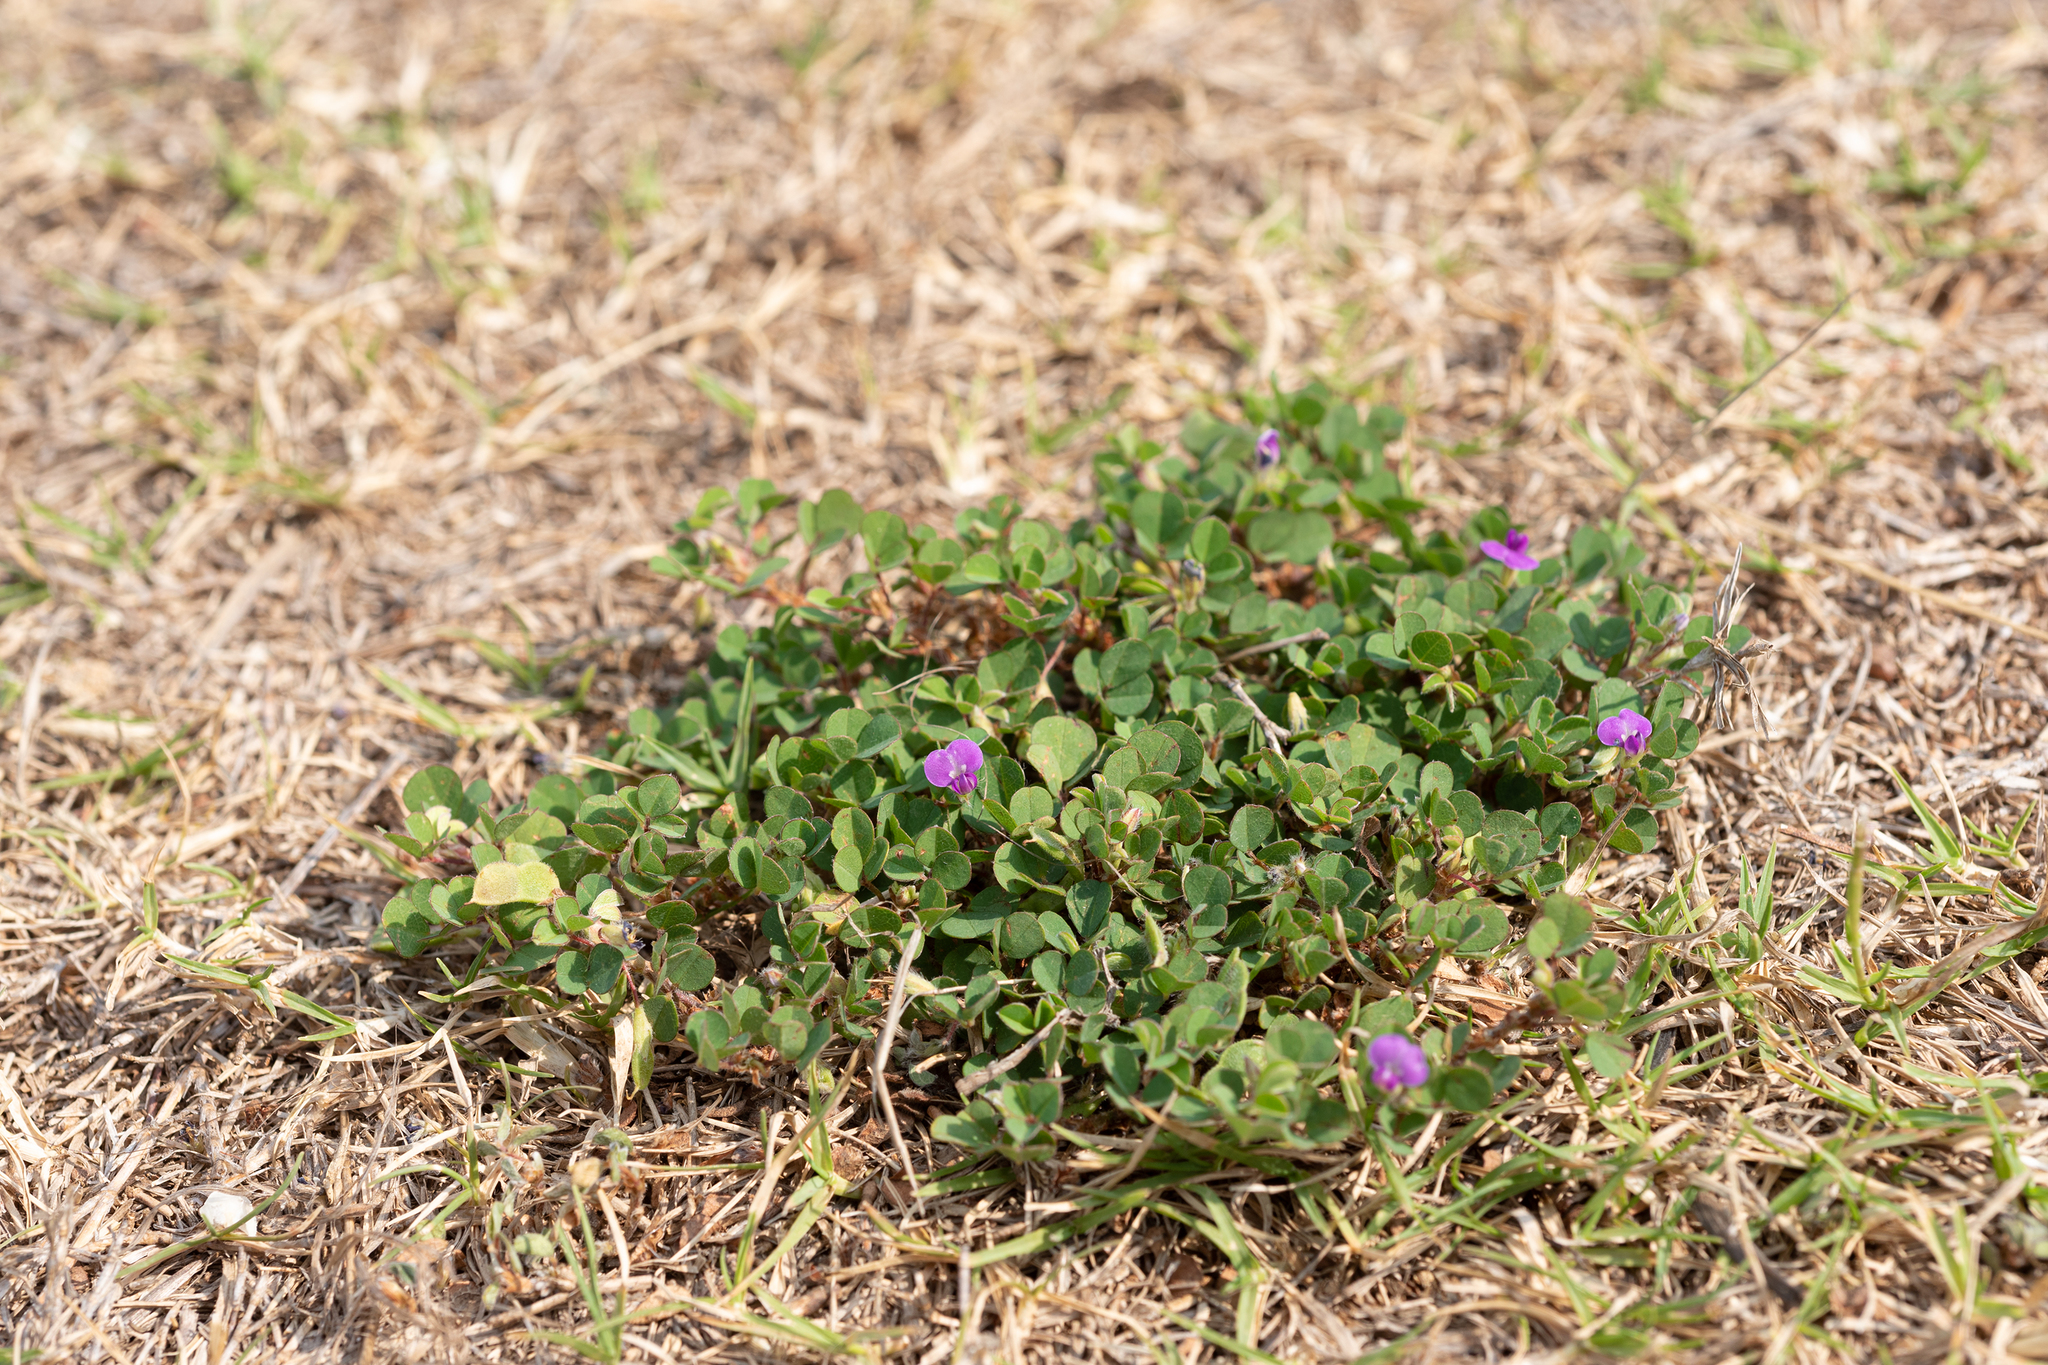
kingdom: Plantae
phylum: Tracheophyta
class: Magnoliopsida
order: Fabales
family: Fabaceae
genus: Grona
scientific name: Grona triflora
